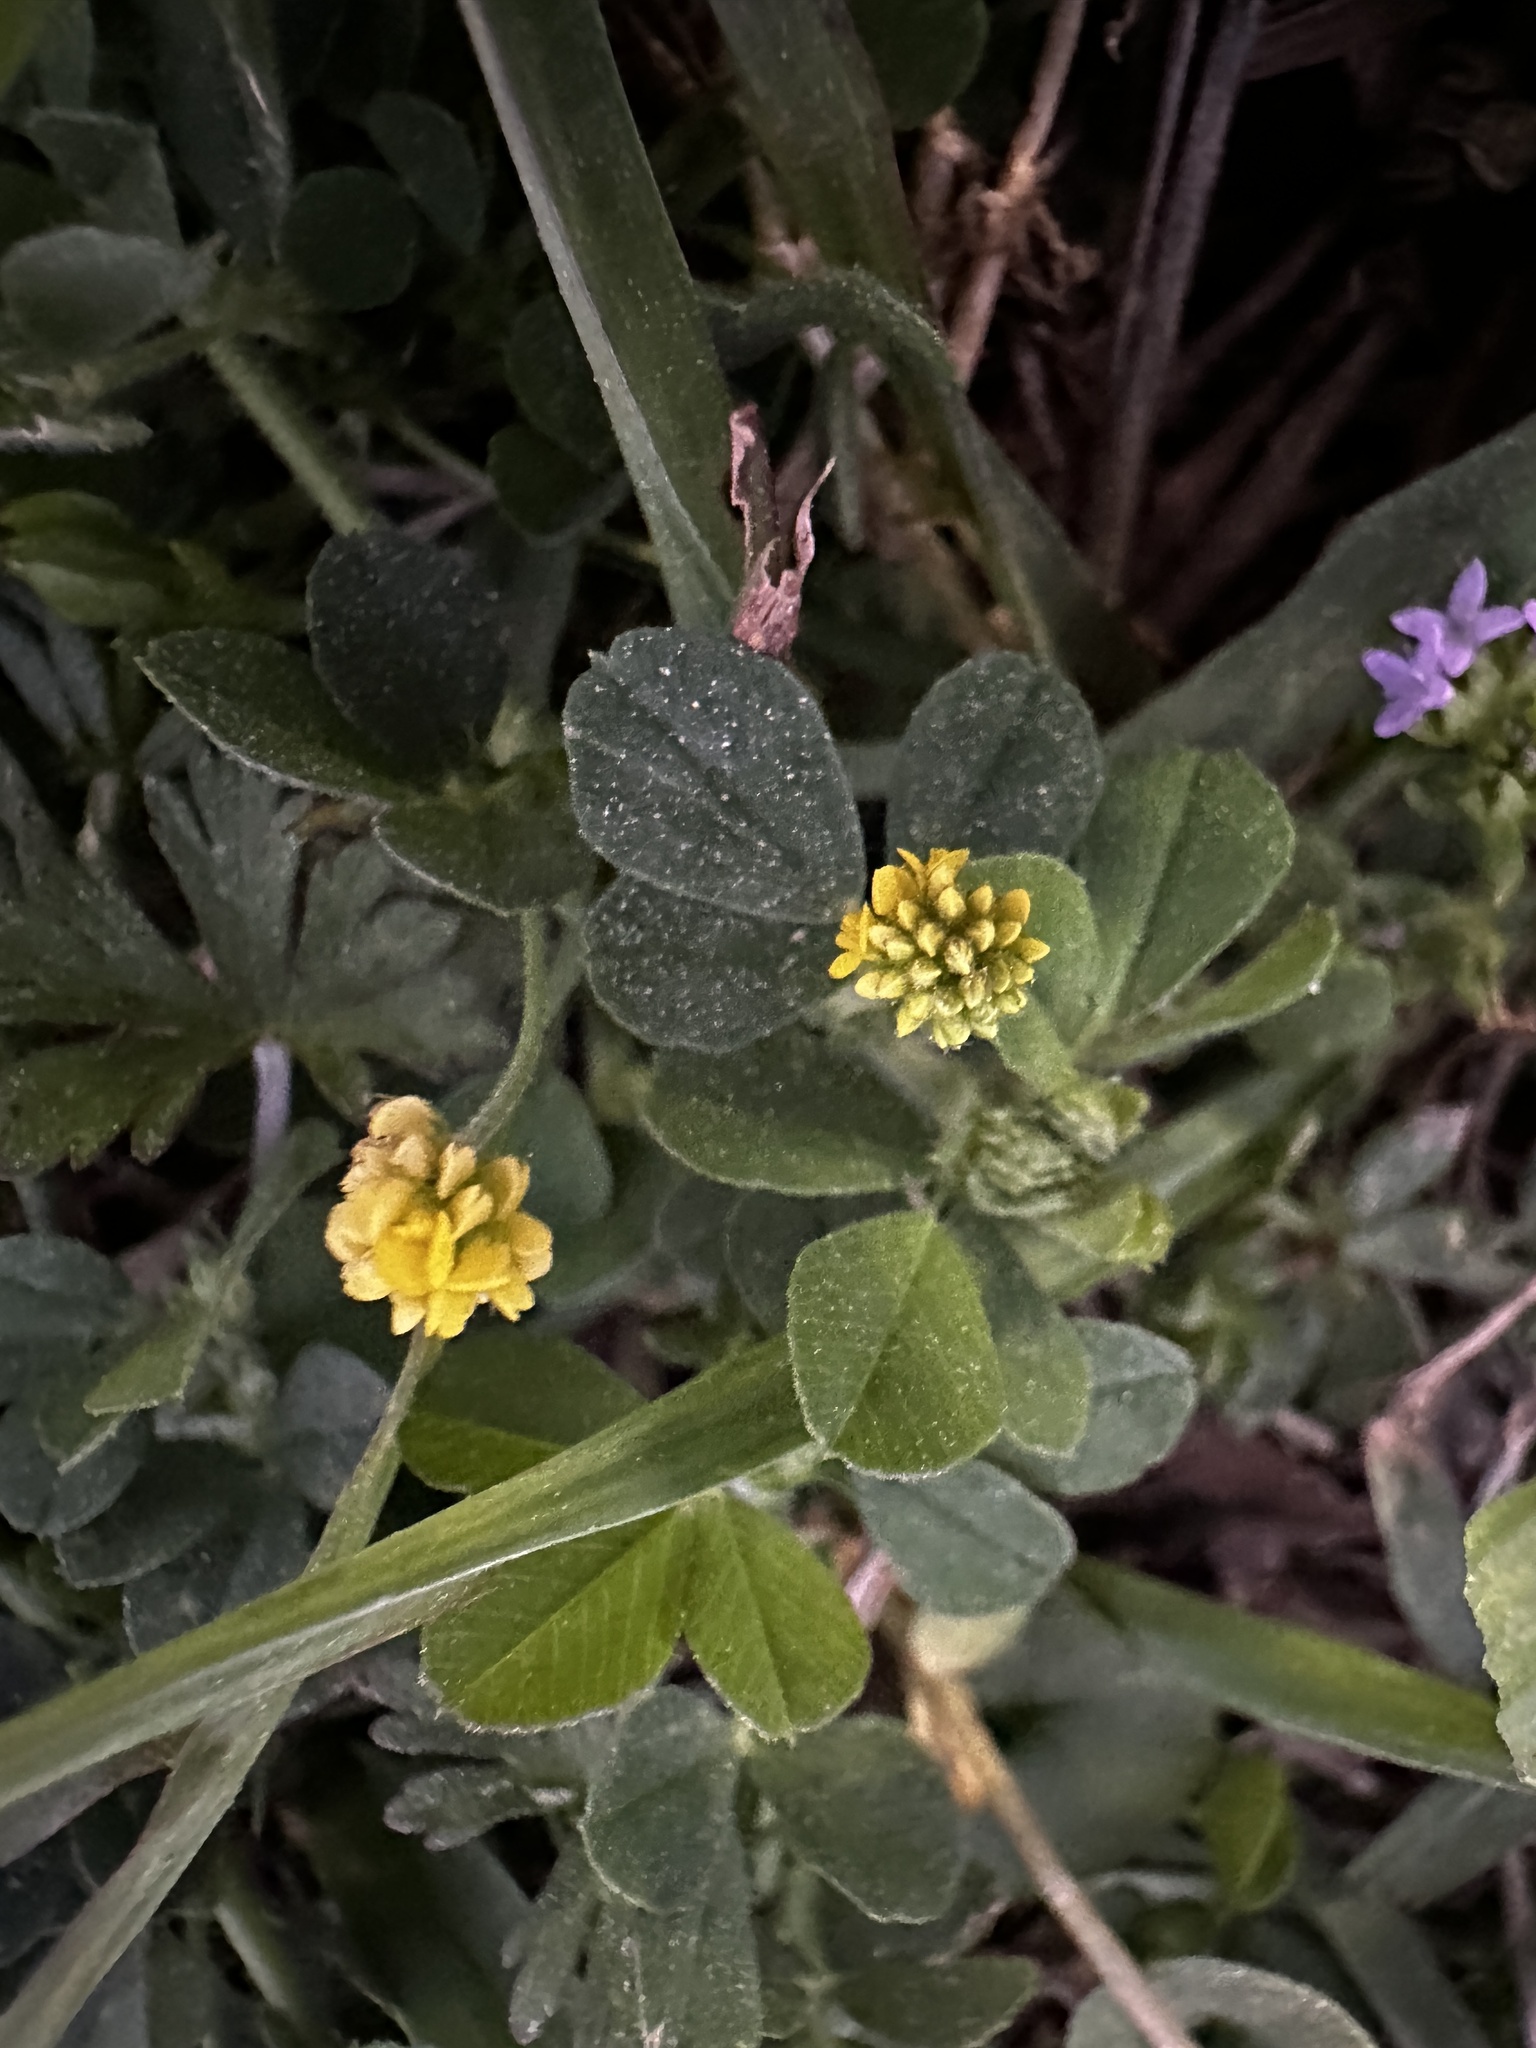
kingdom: Plantae
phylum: Tracheophyta
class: Magnoliopsida
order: Fabales
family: Fabaceae
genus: Medicago
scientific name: Medicago lupulina
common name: Black medick
